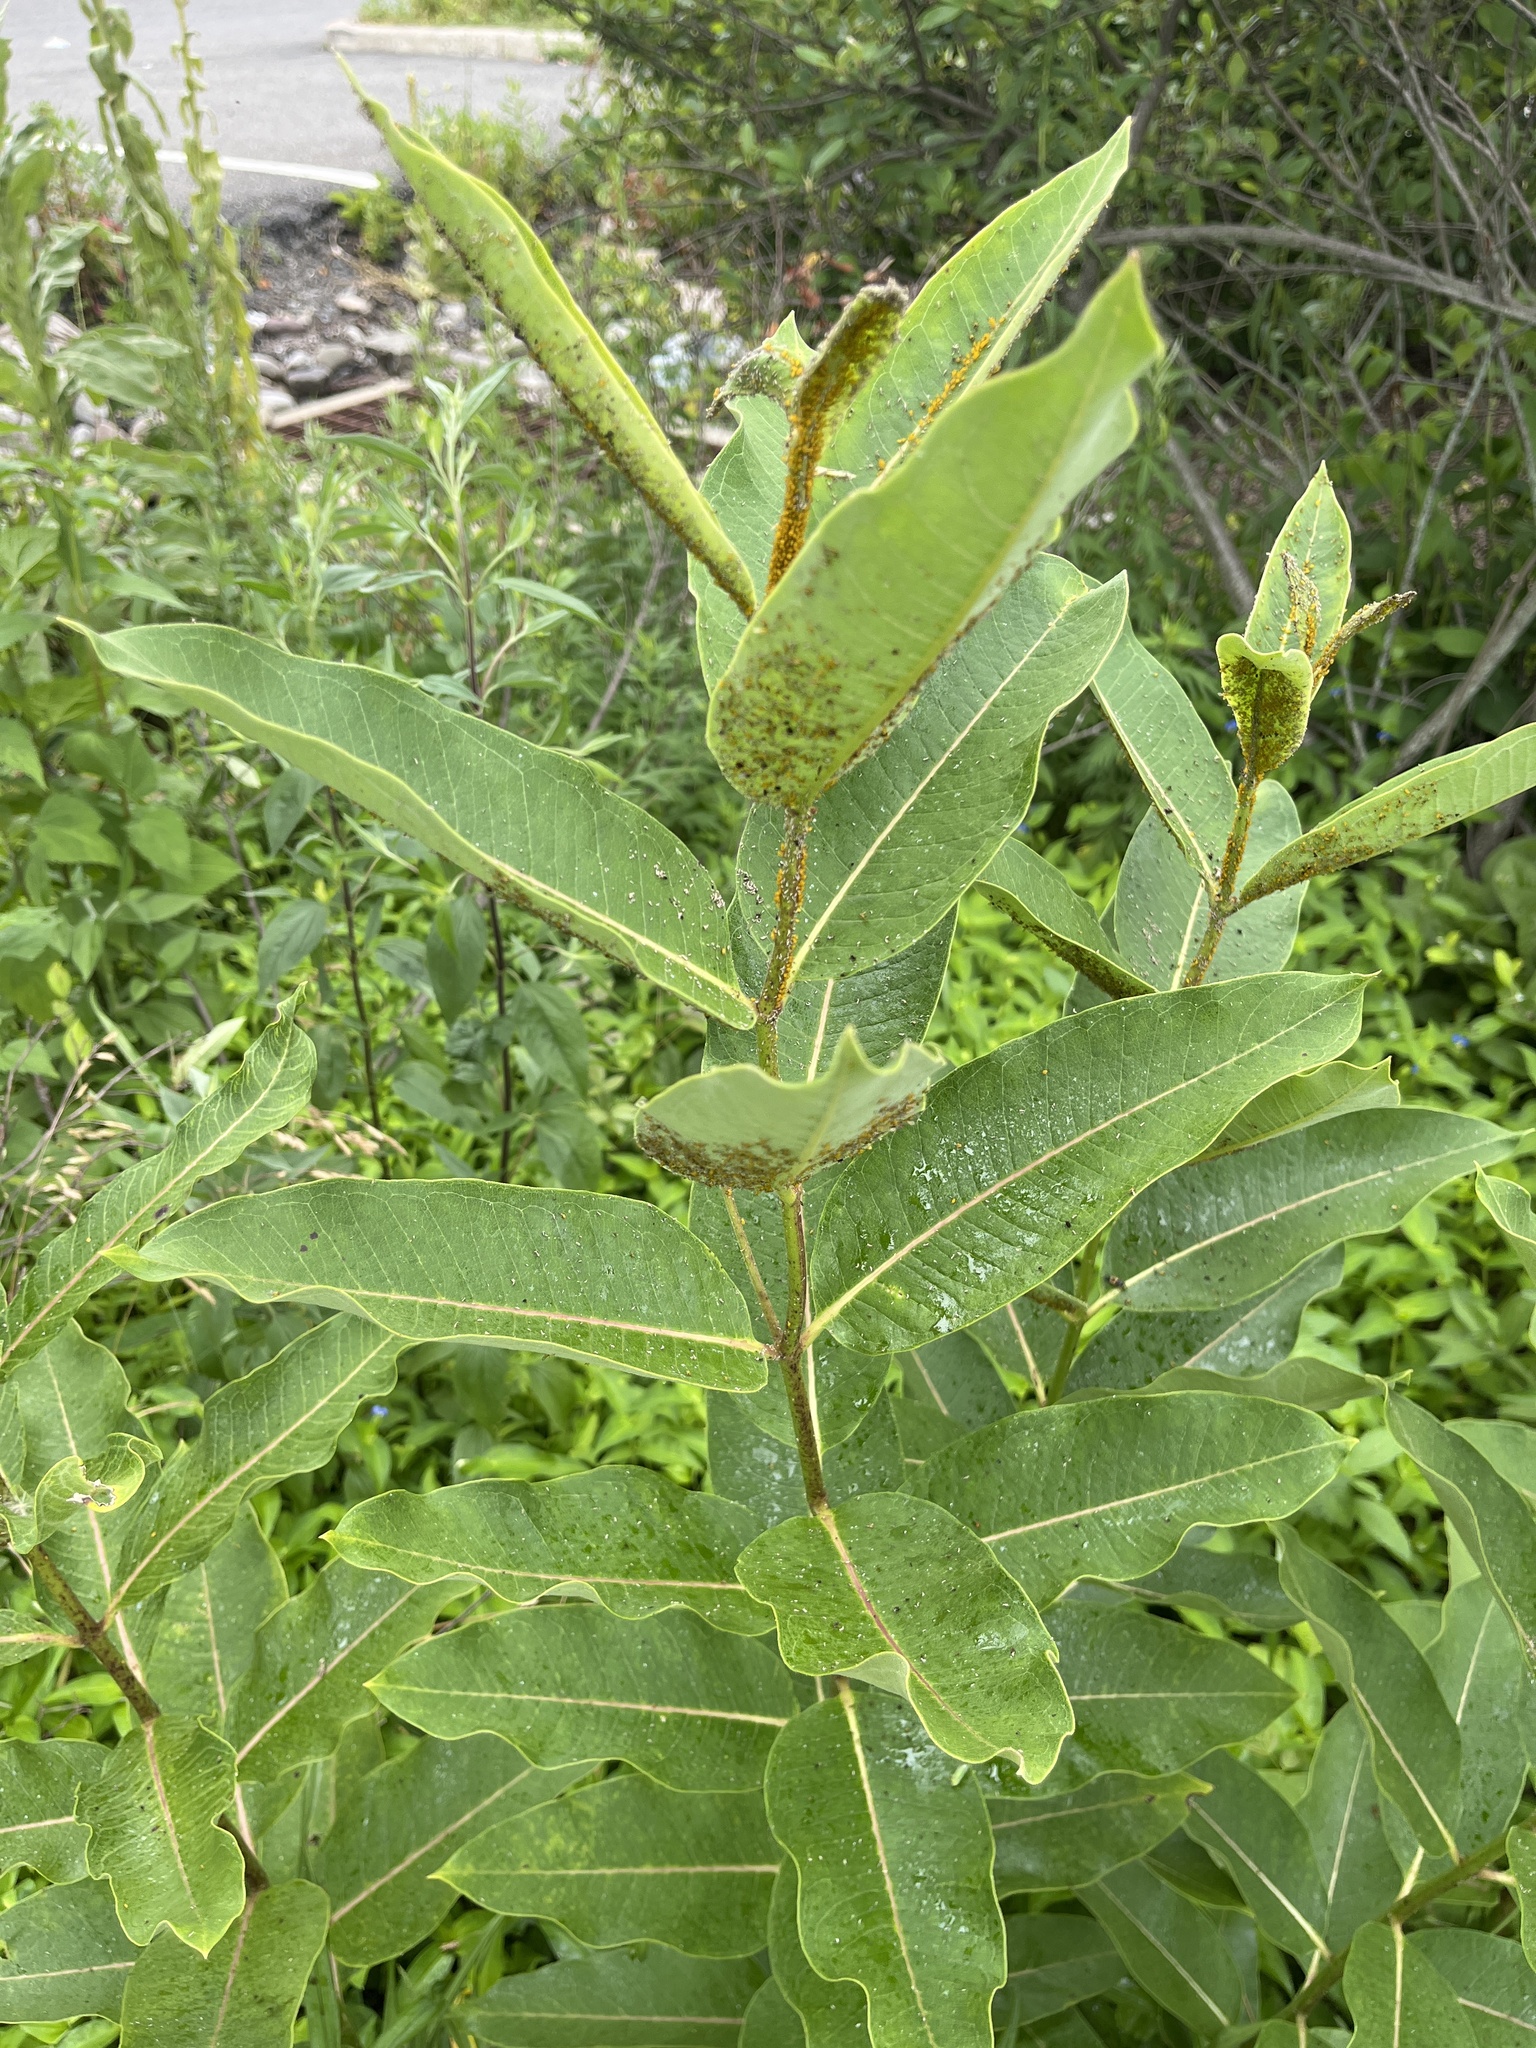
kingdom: Animalia
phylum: Arthropoda
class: Insecta
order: Hemiptera
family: Aphididae
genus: Aphis
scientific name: Aphis nerii
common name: Oleander aphid
